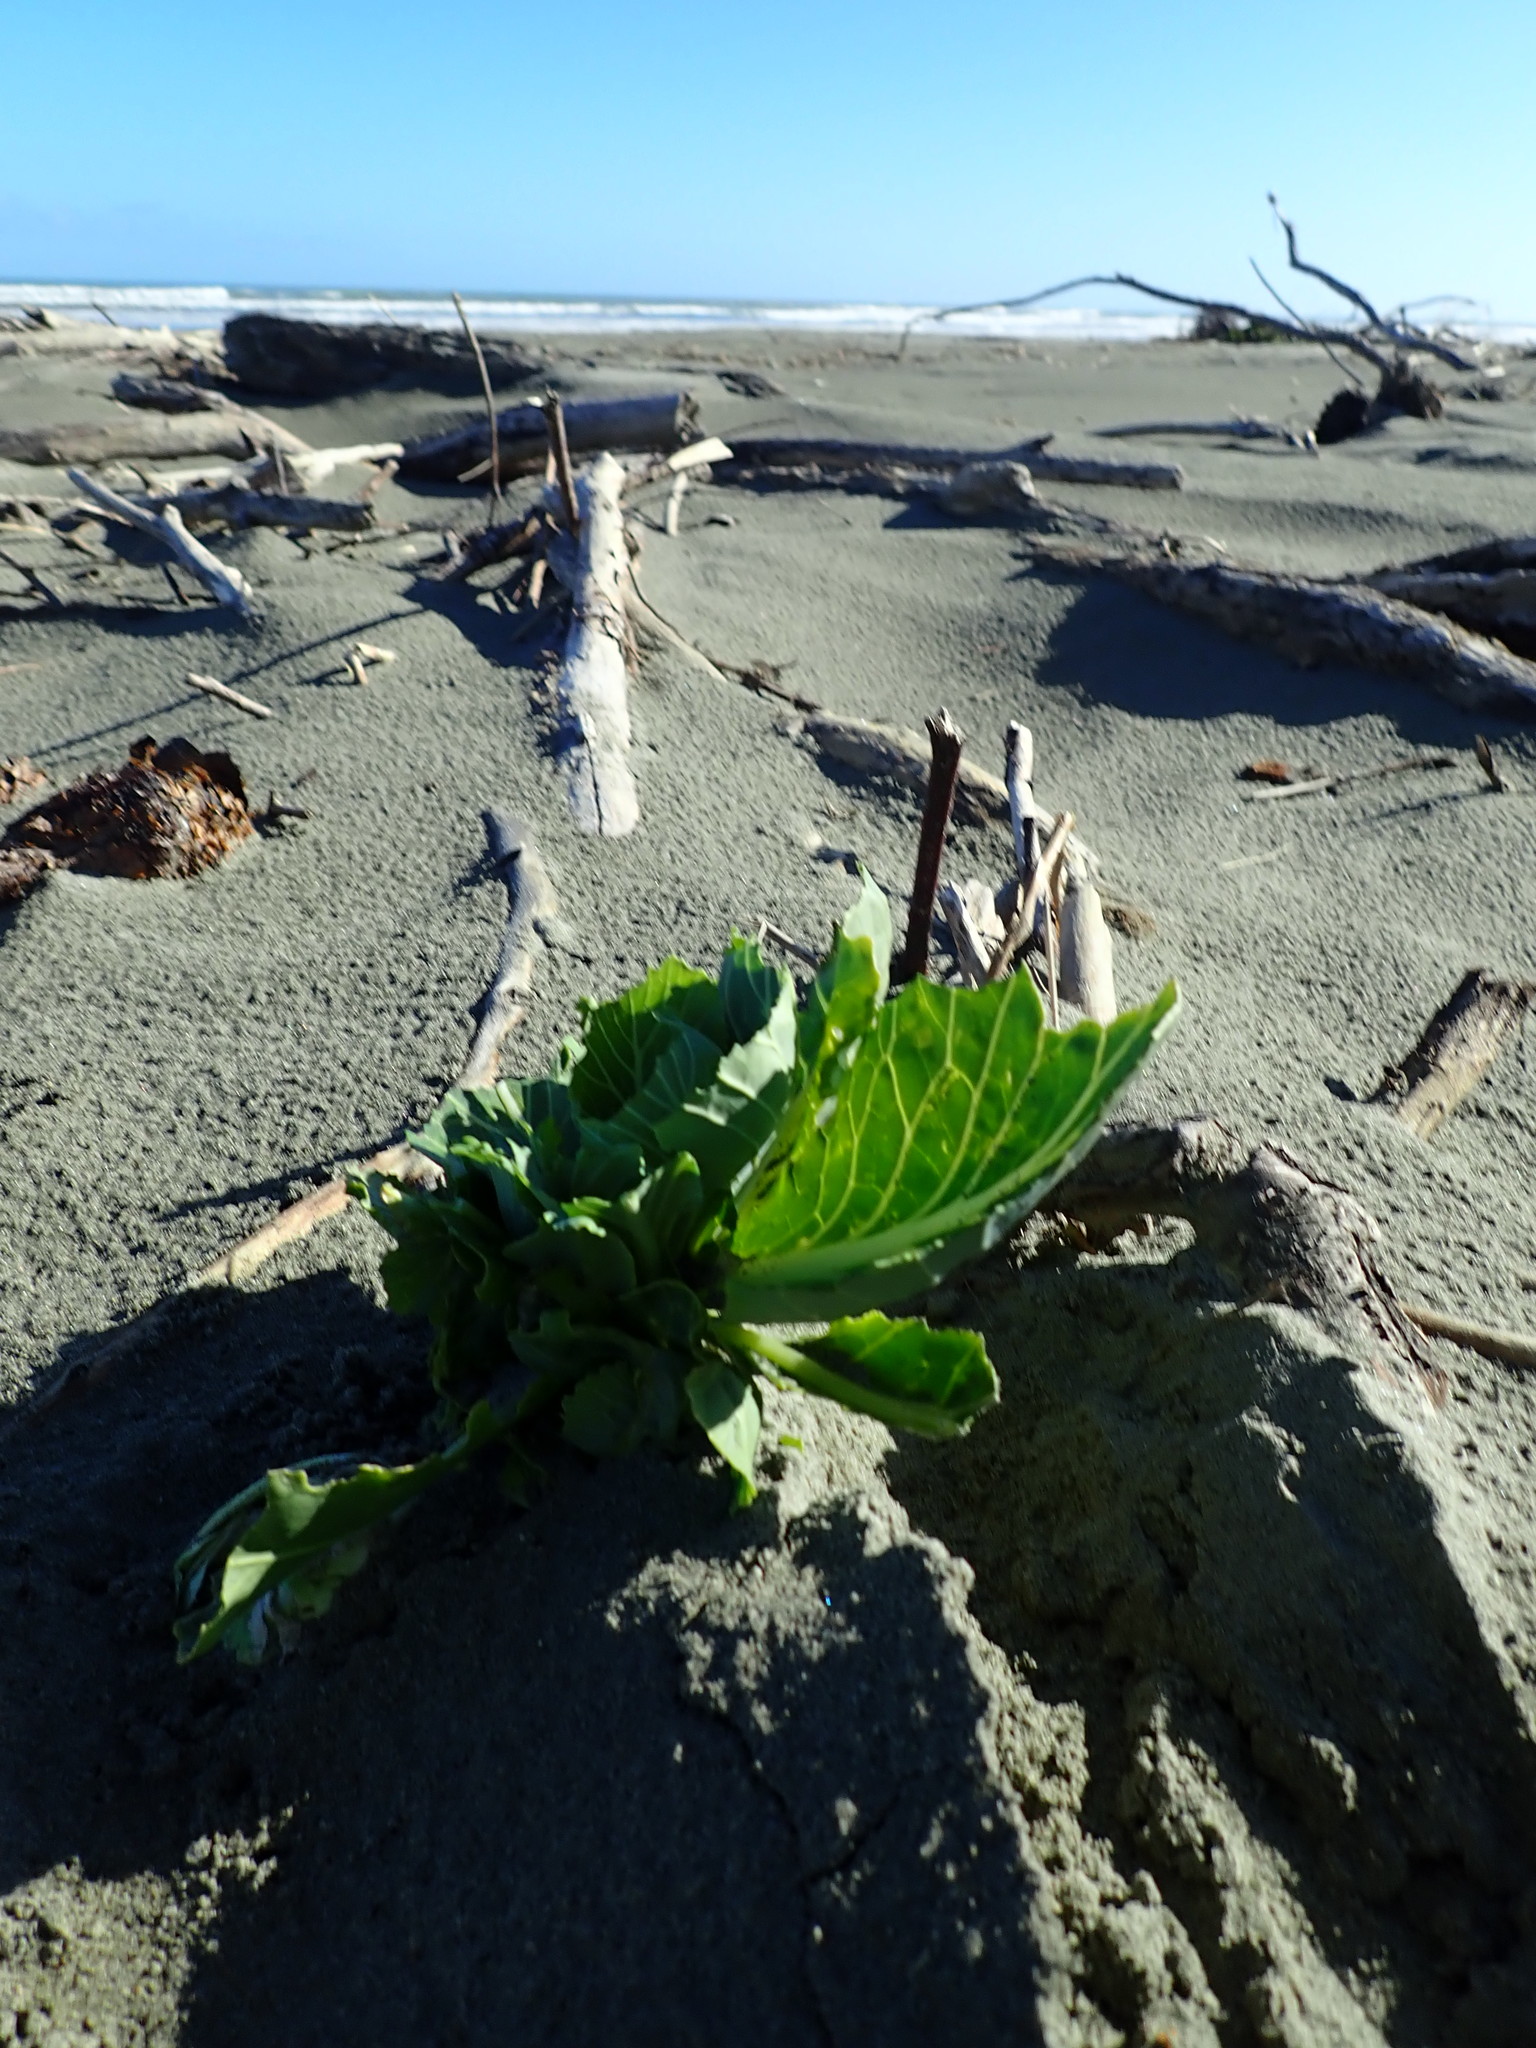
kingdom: Plantae
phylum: Tracheophyta
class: Magnoliopsida
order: Brassicales
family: Brassicaceae
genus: Brassica
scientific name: Brassica oleracea
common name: Cabbage
